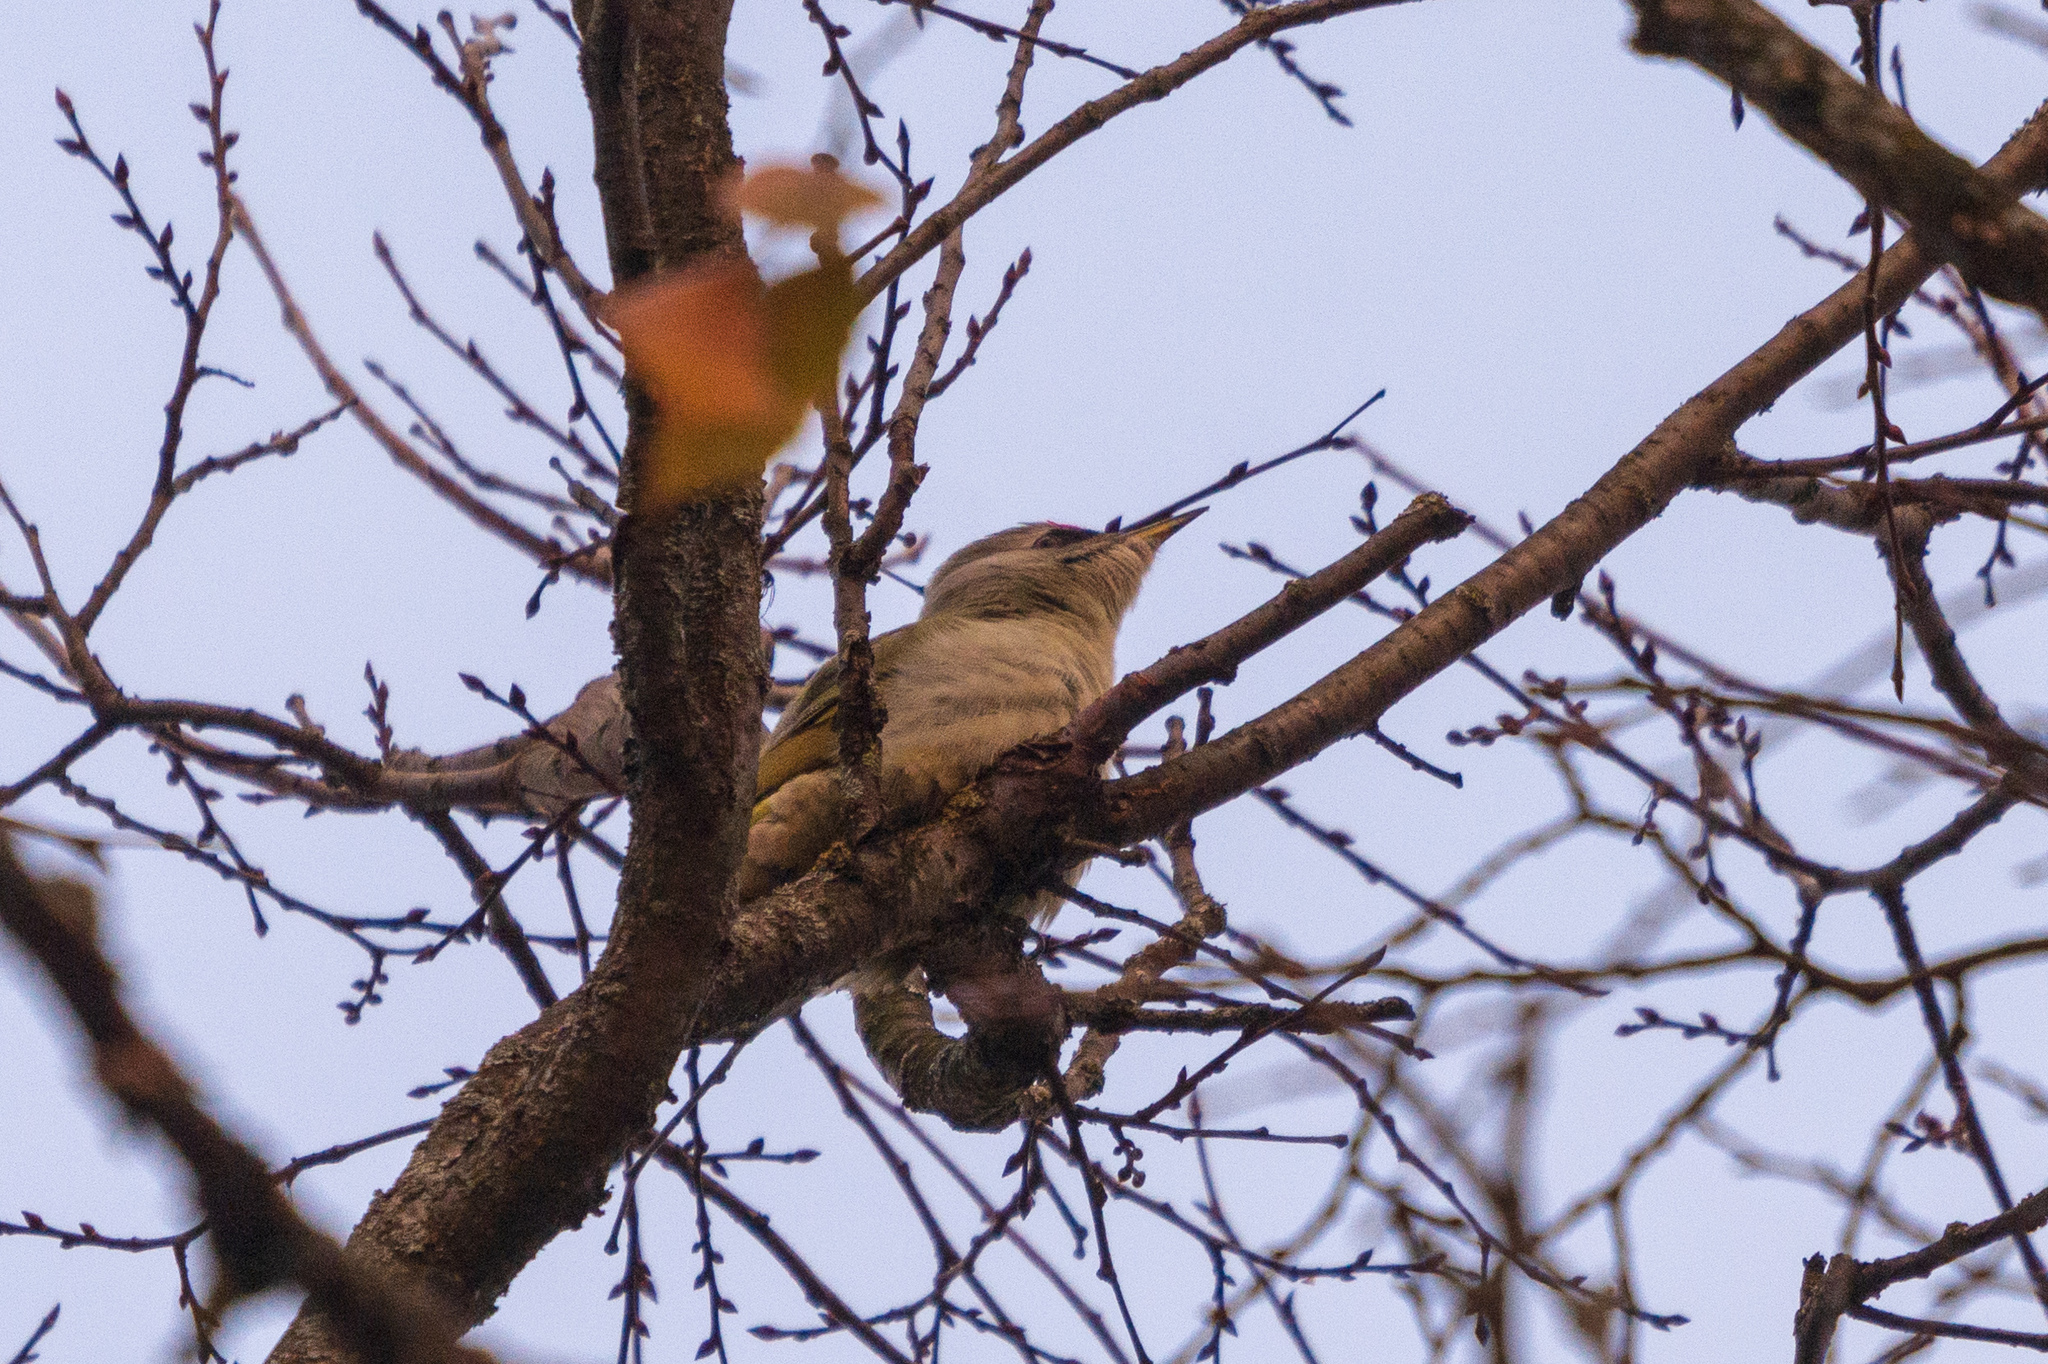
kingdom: Animalia
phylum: Chordata
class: Aves
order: Piciformes
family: Picidae
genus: Picus
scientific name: Picus canus
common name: Grey-headed woodpecker
